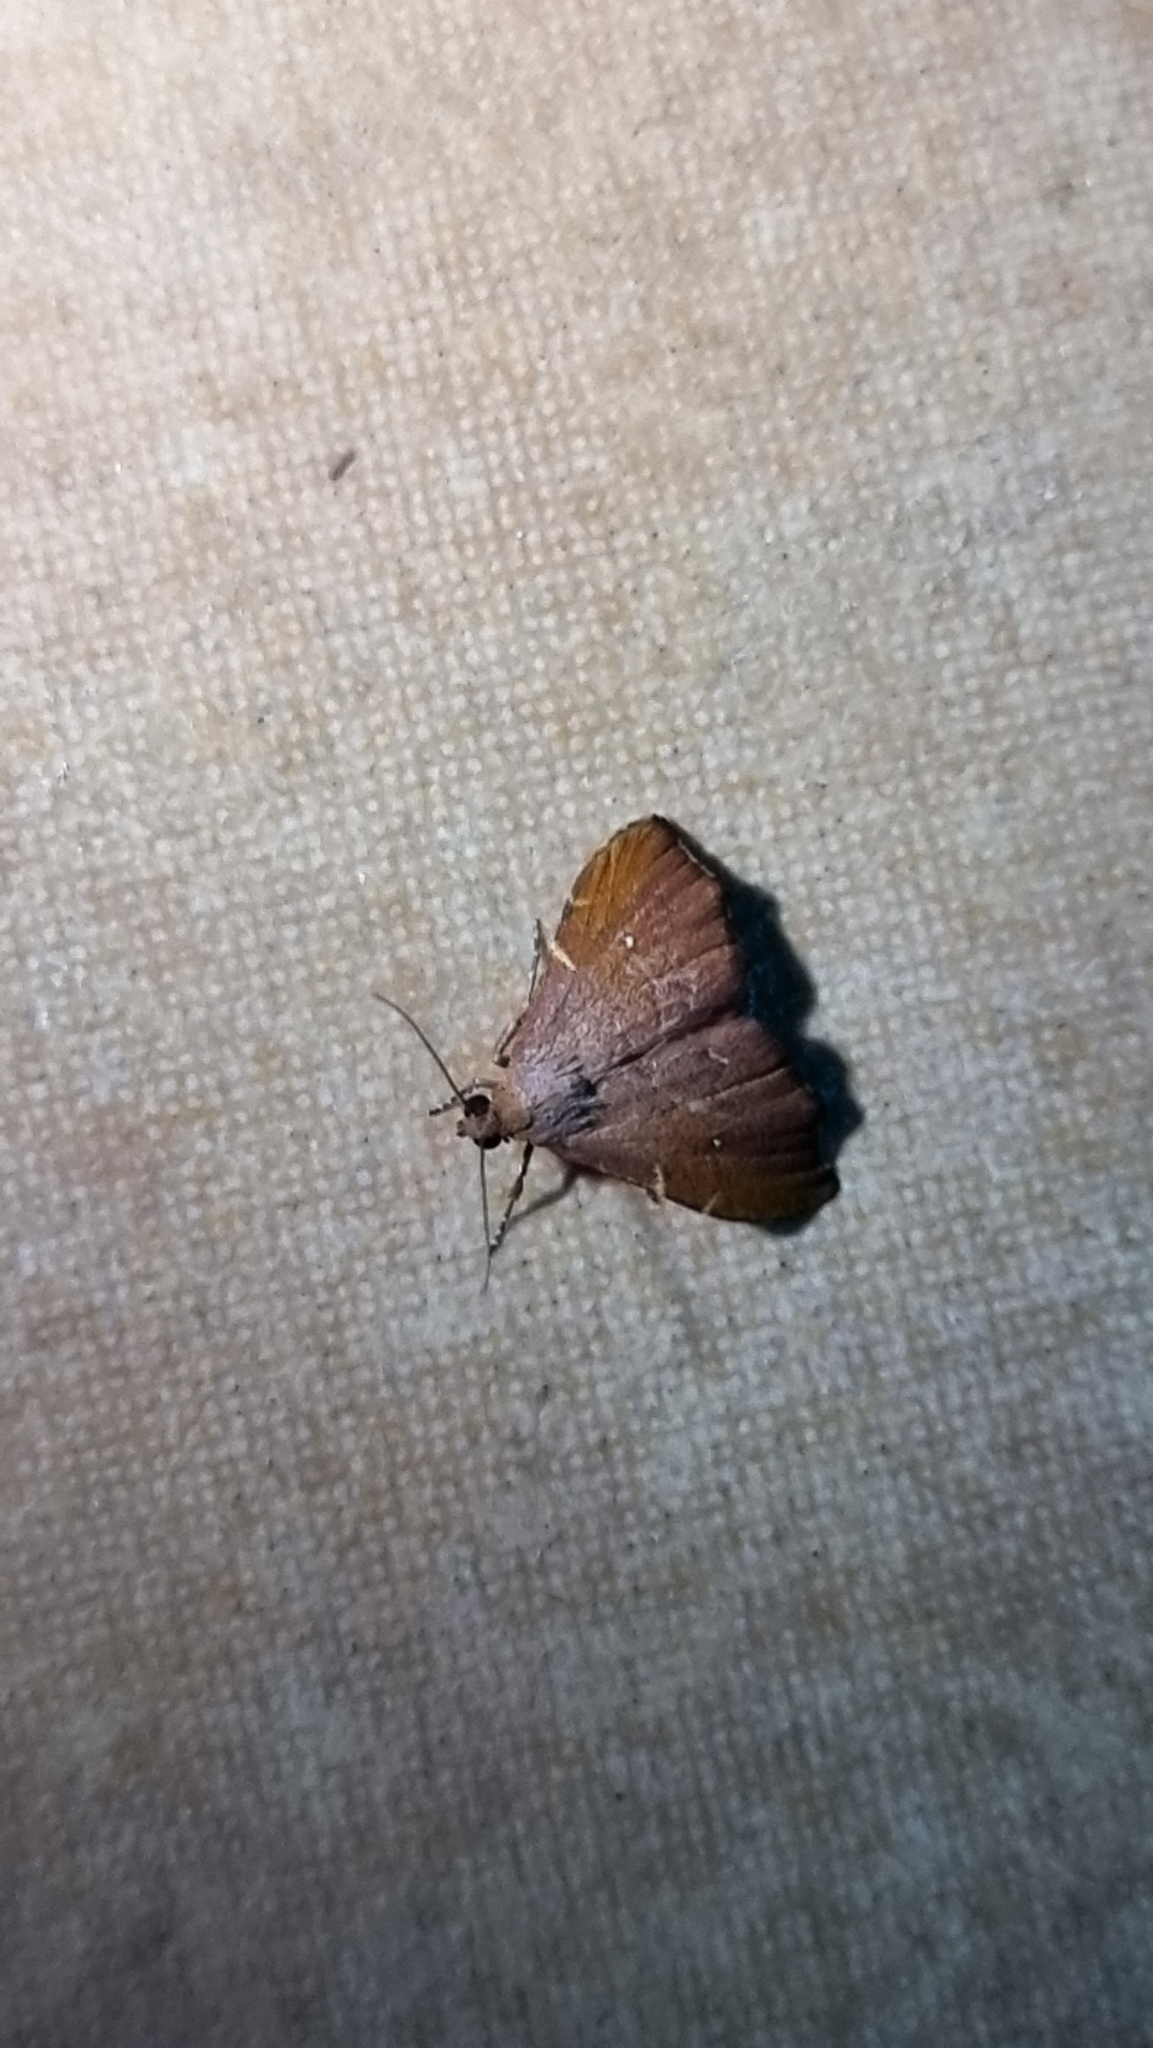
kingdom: Animalia
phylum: Arthropoda
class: Insecta
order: Lepidoptera
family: Noctuidae
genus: Heterorta
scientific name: Heterorta plutonis
